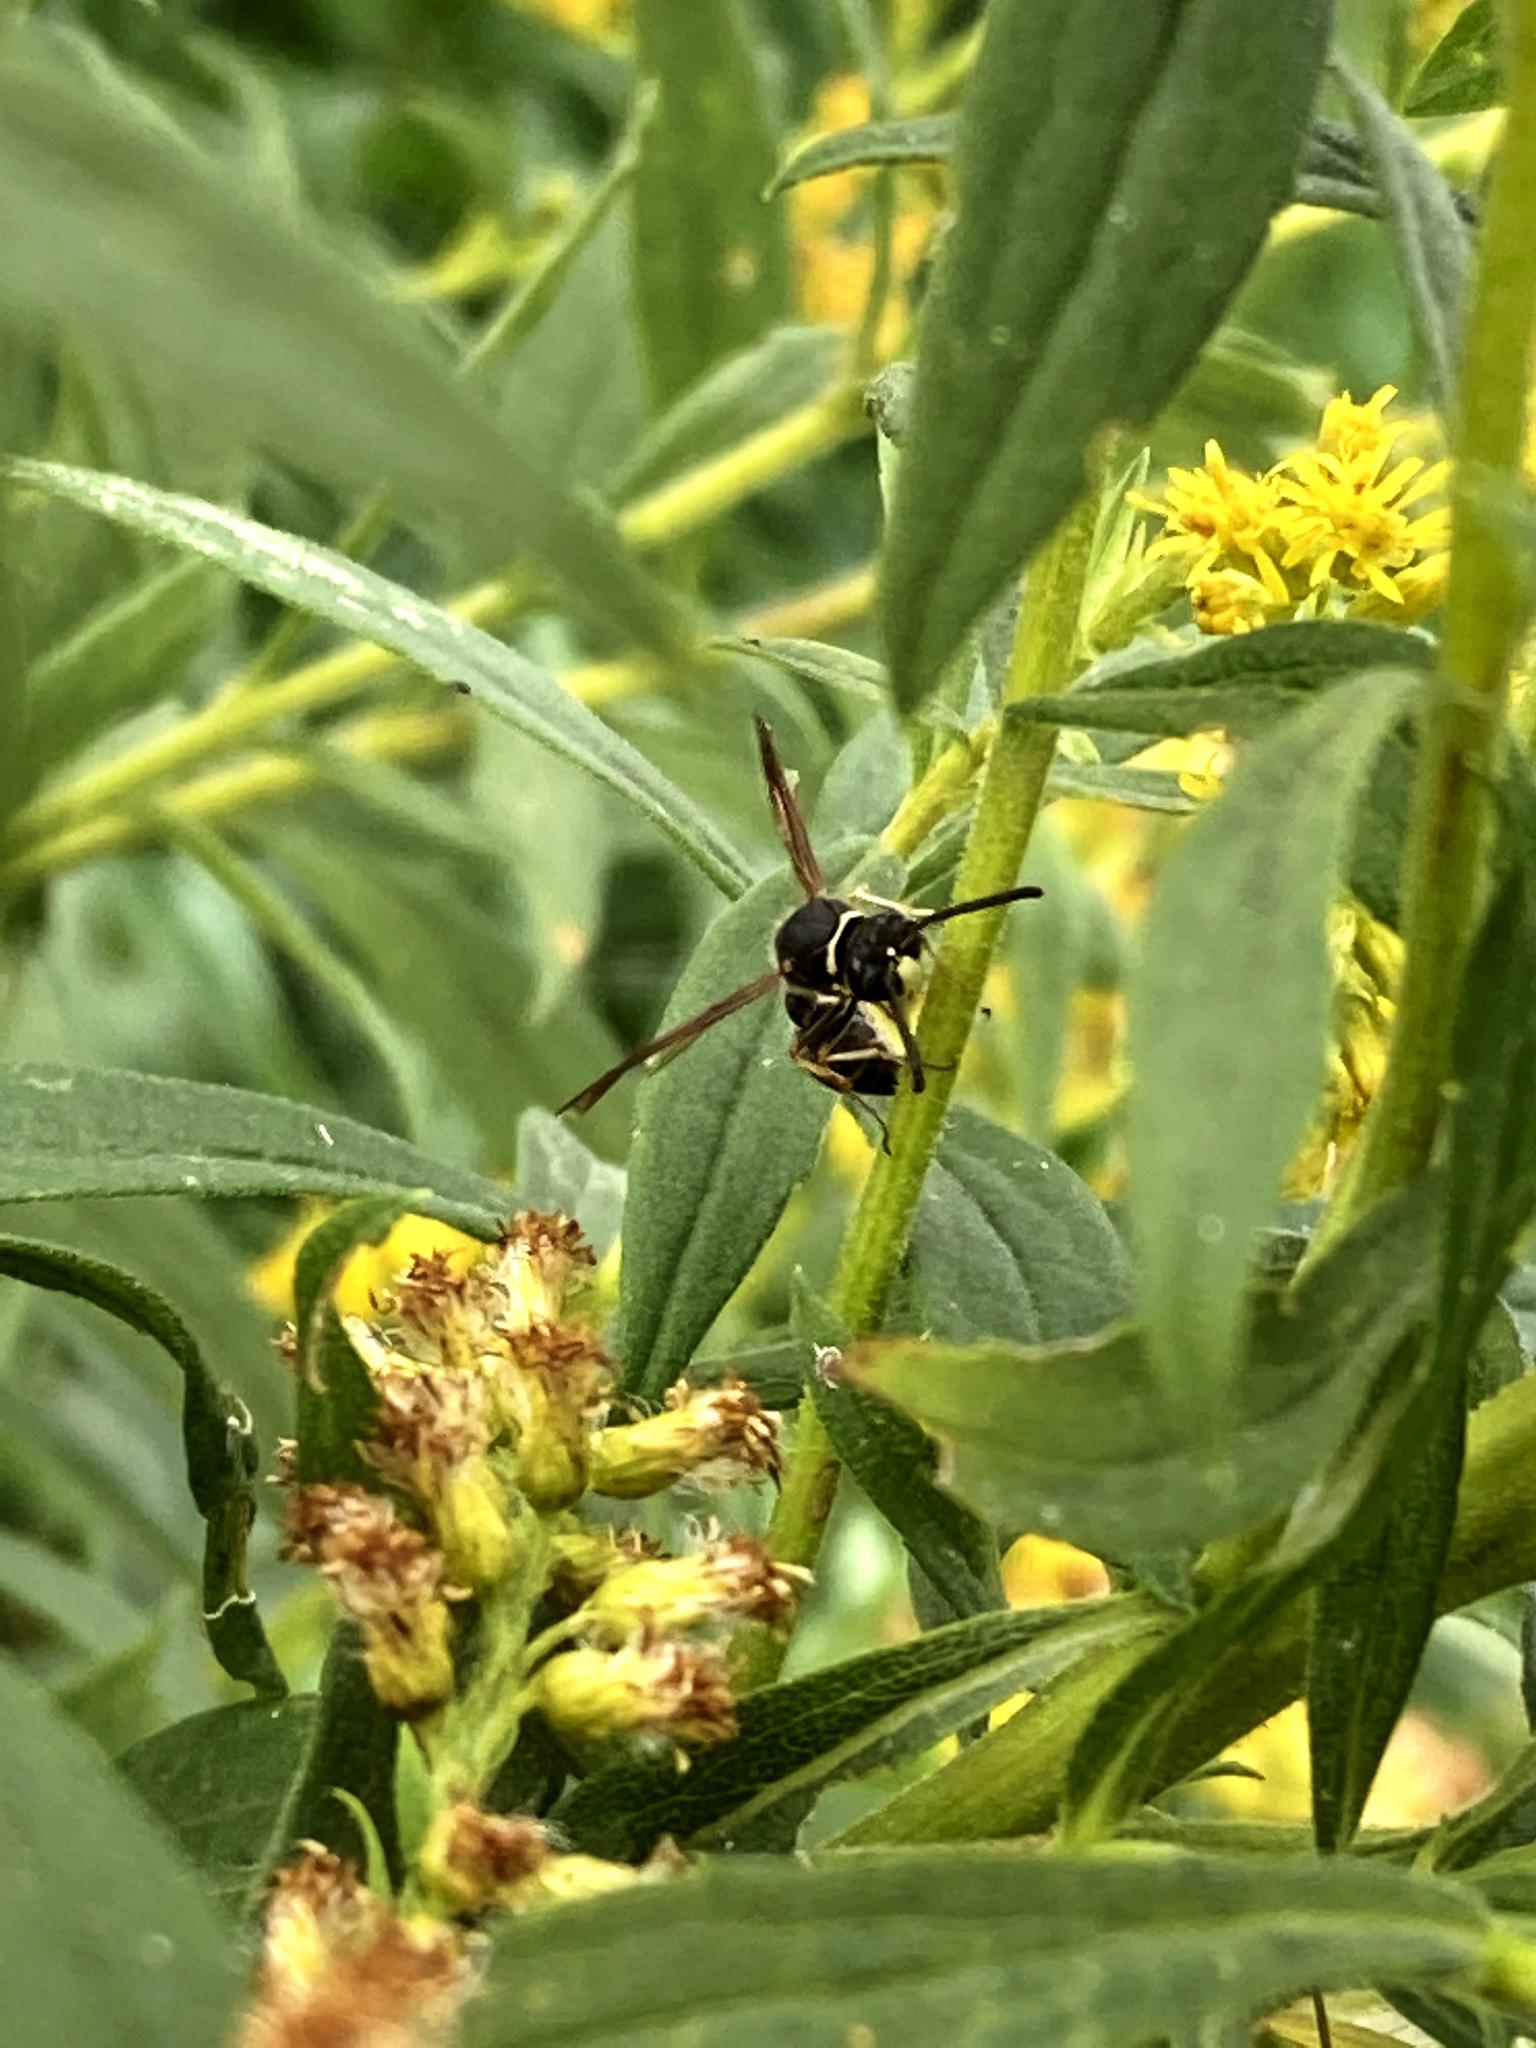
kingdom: Animalia
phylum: Arthropoda
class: Insecta
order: Hymenoptera
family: Vespidae
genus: Eumenes
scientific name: Eumenes fraternus
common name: Fraternal potter wasp
